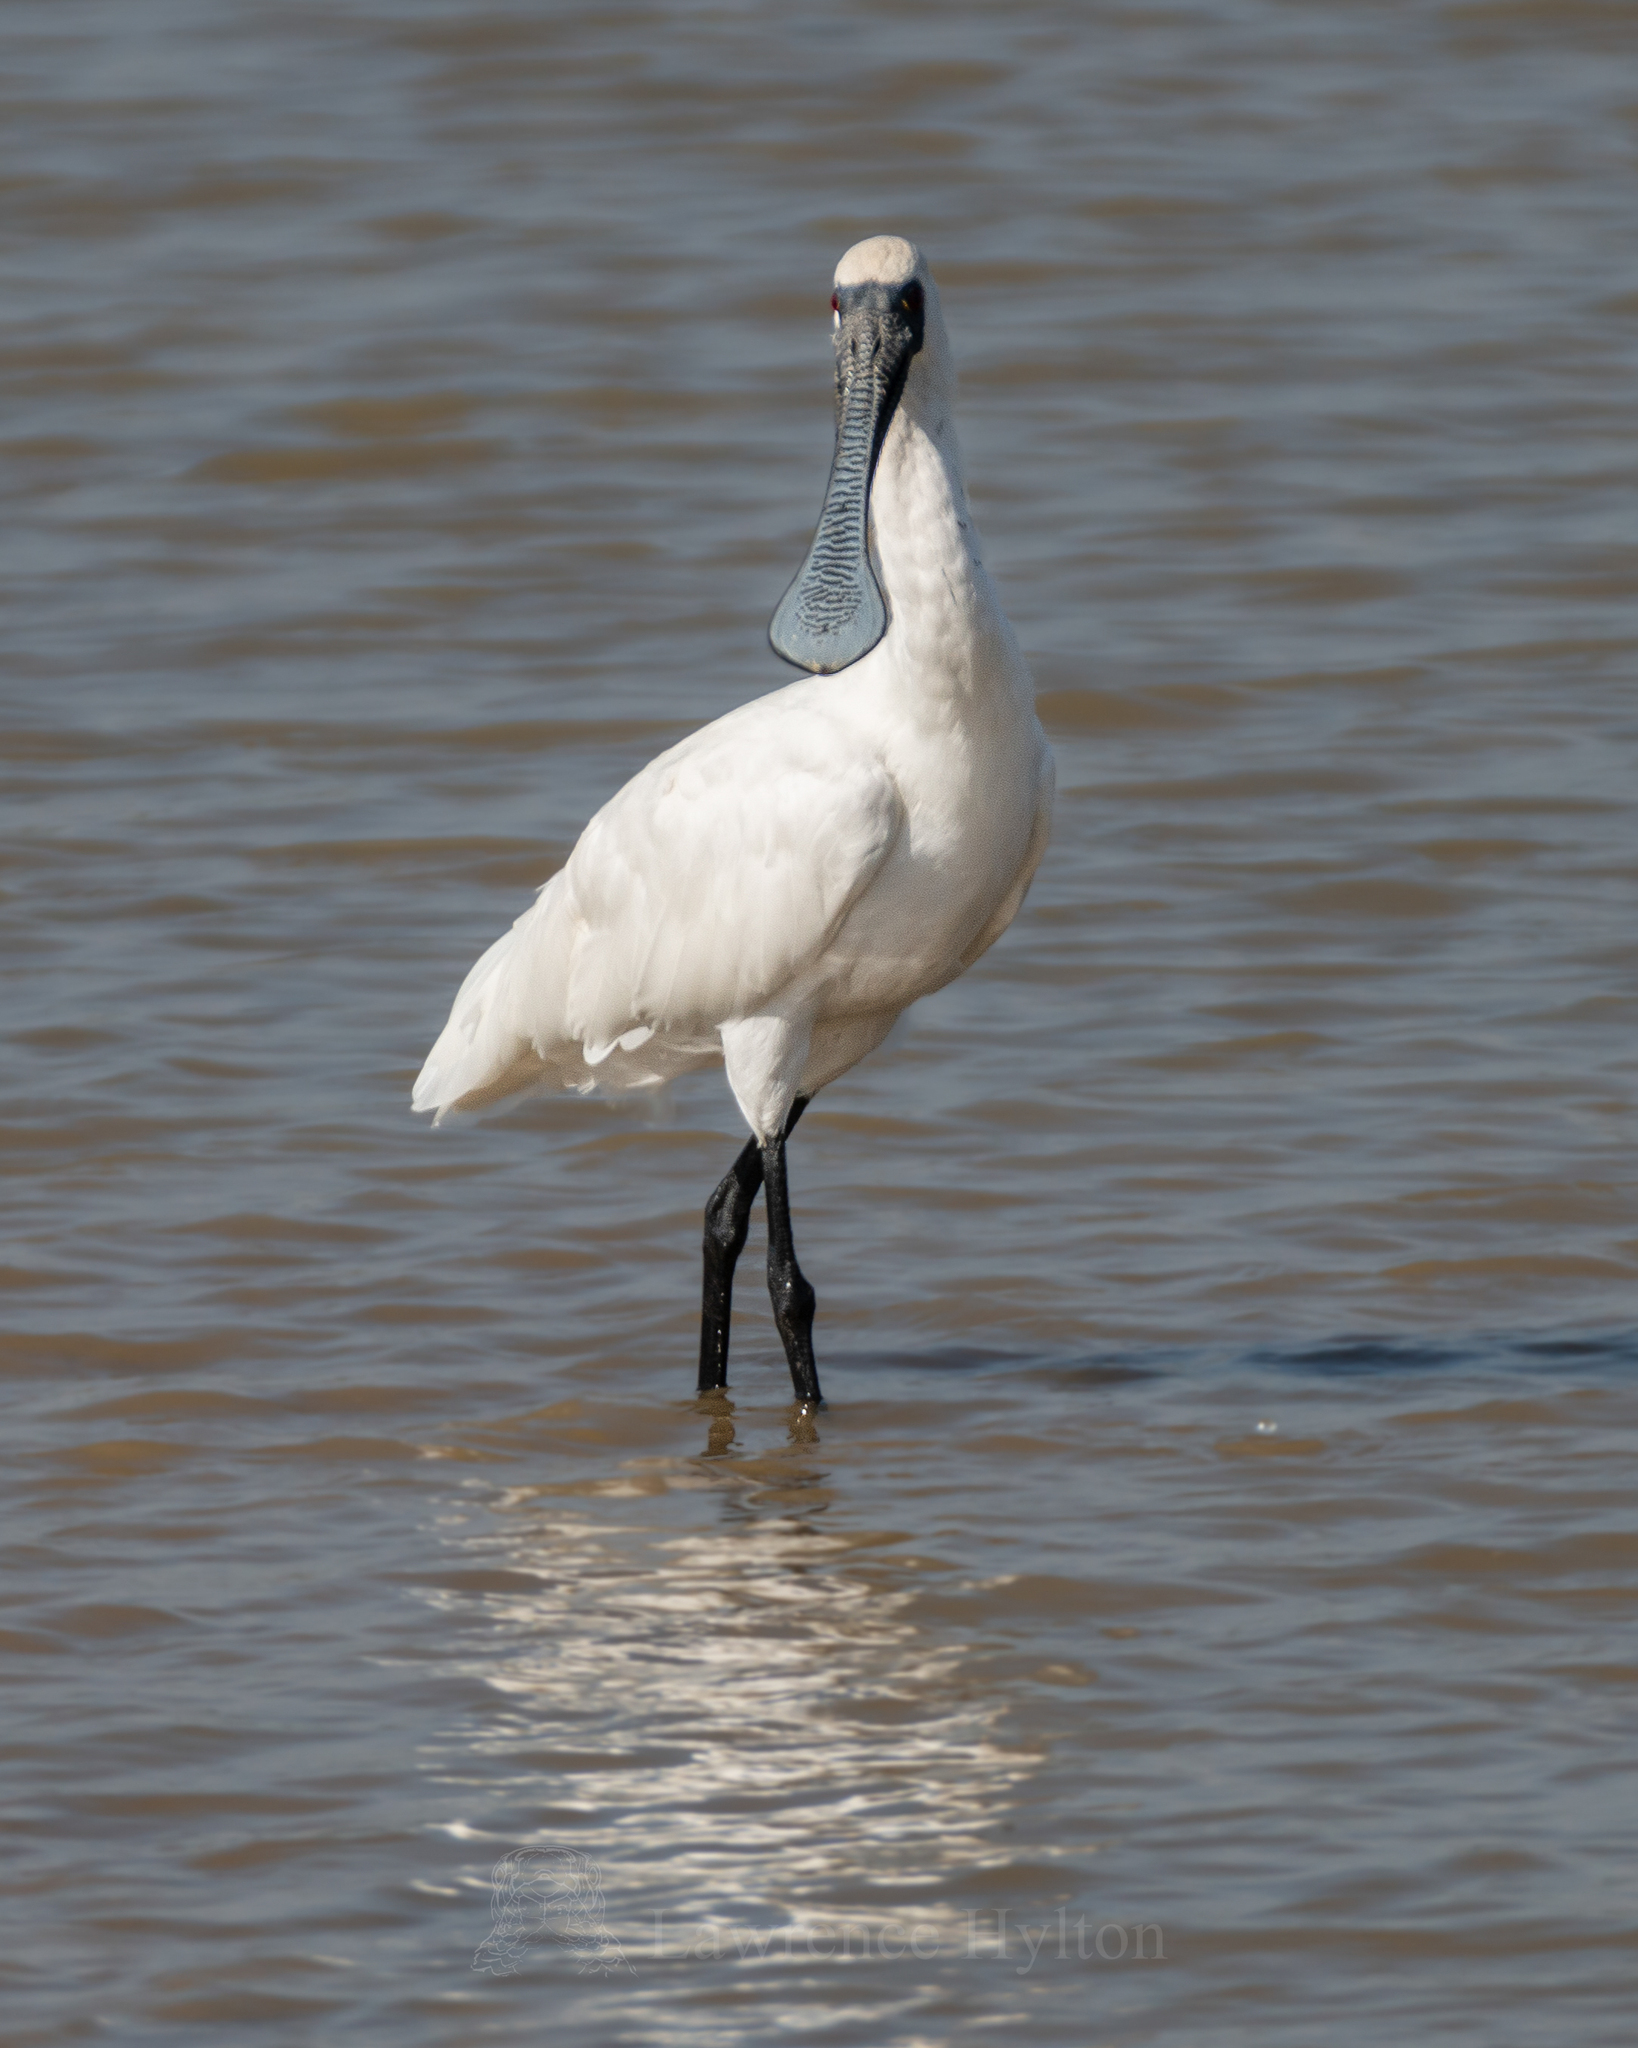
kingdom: Animalia
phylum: Chordata
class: Aves
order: Pelecaniformes
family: Threskiornithidae
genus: Platalea
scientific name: Platalea minor
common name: Black-faced spoonbill
